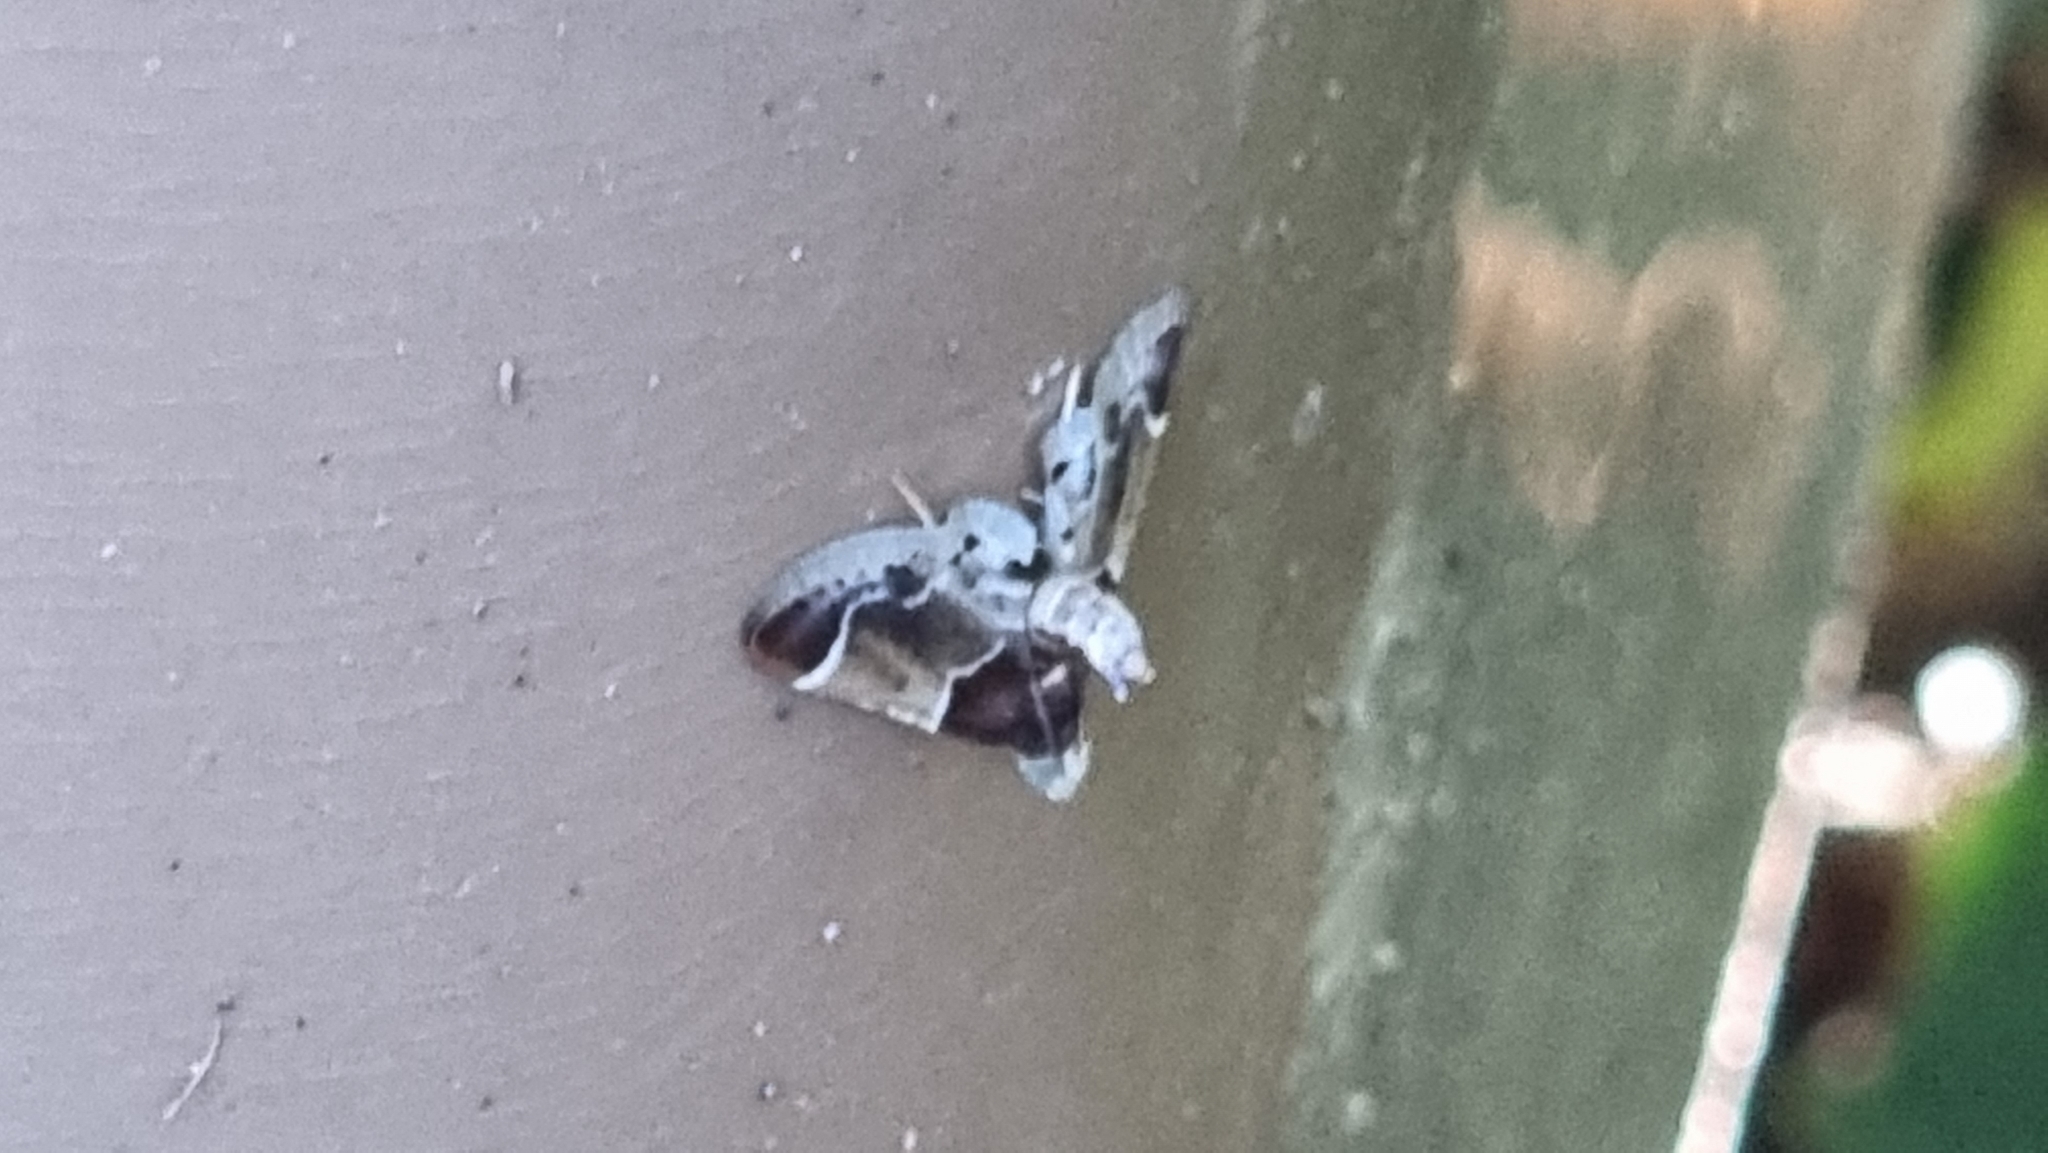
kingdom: Animalia
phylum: Arthropoda
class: Insecta
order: Lepidoptera
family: Pyralidae
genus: Pyralis
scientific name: Pyralis farinalis
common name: Meal moth
